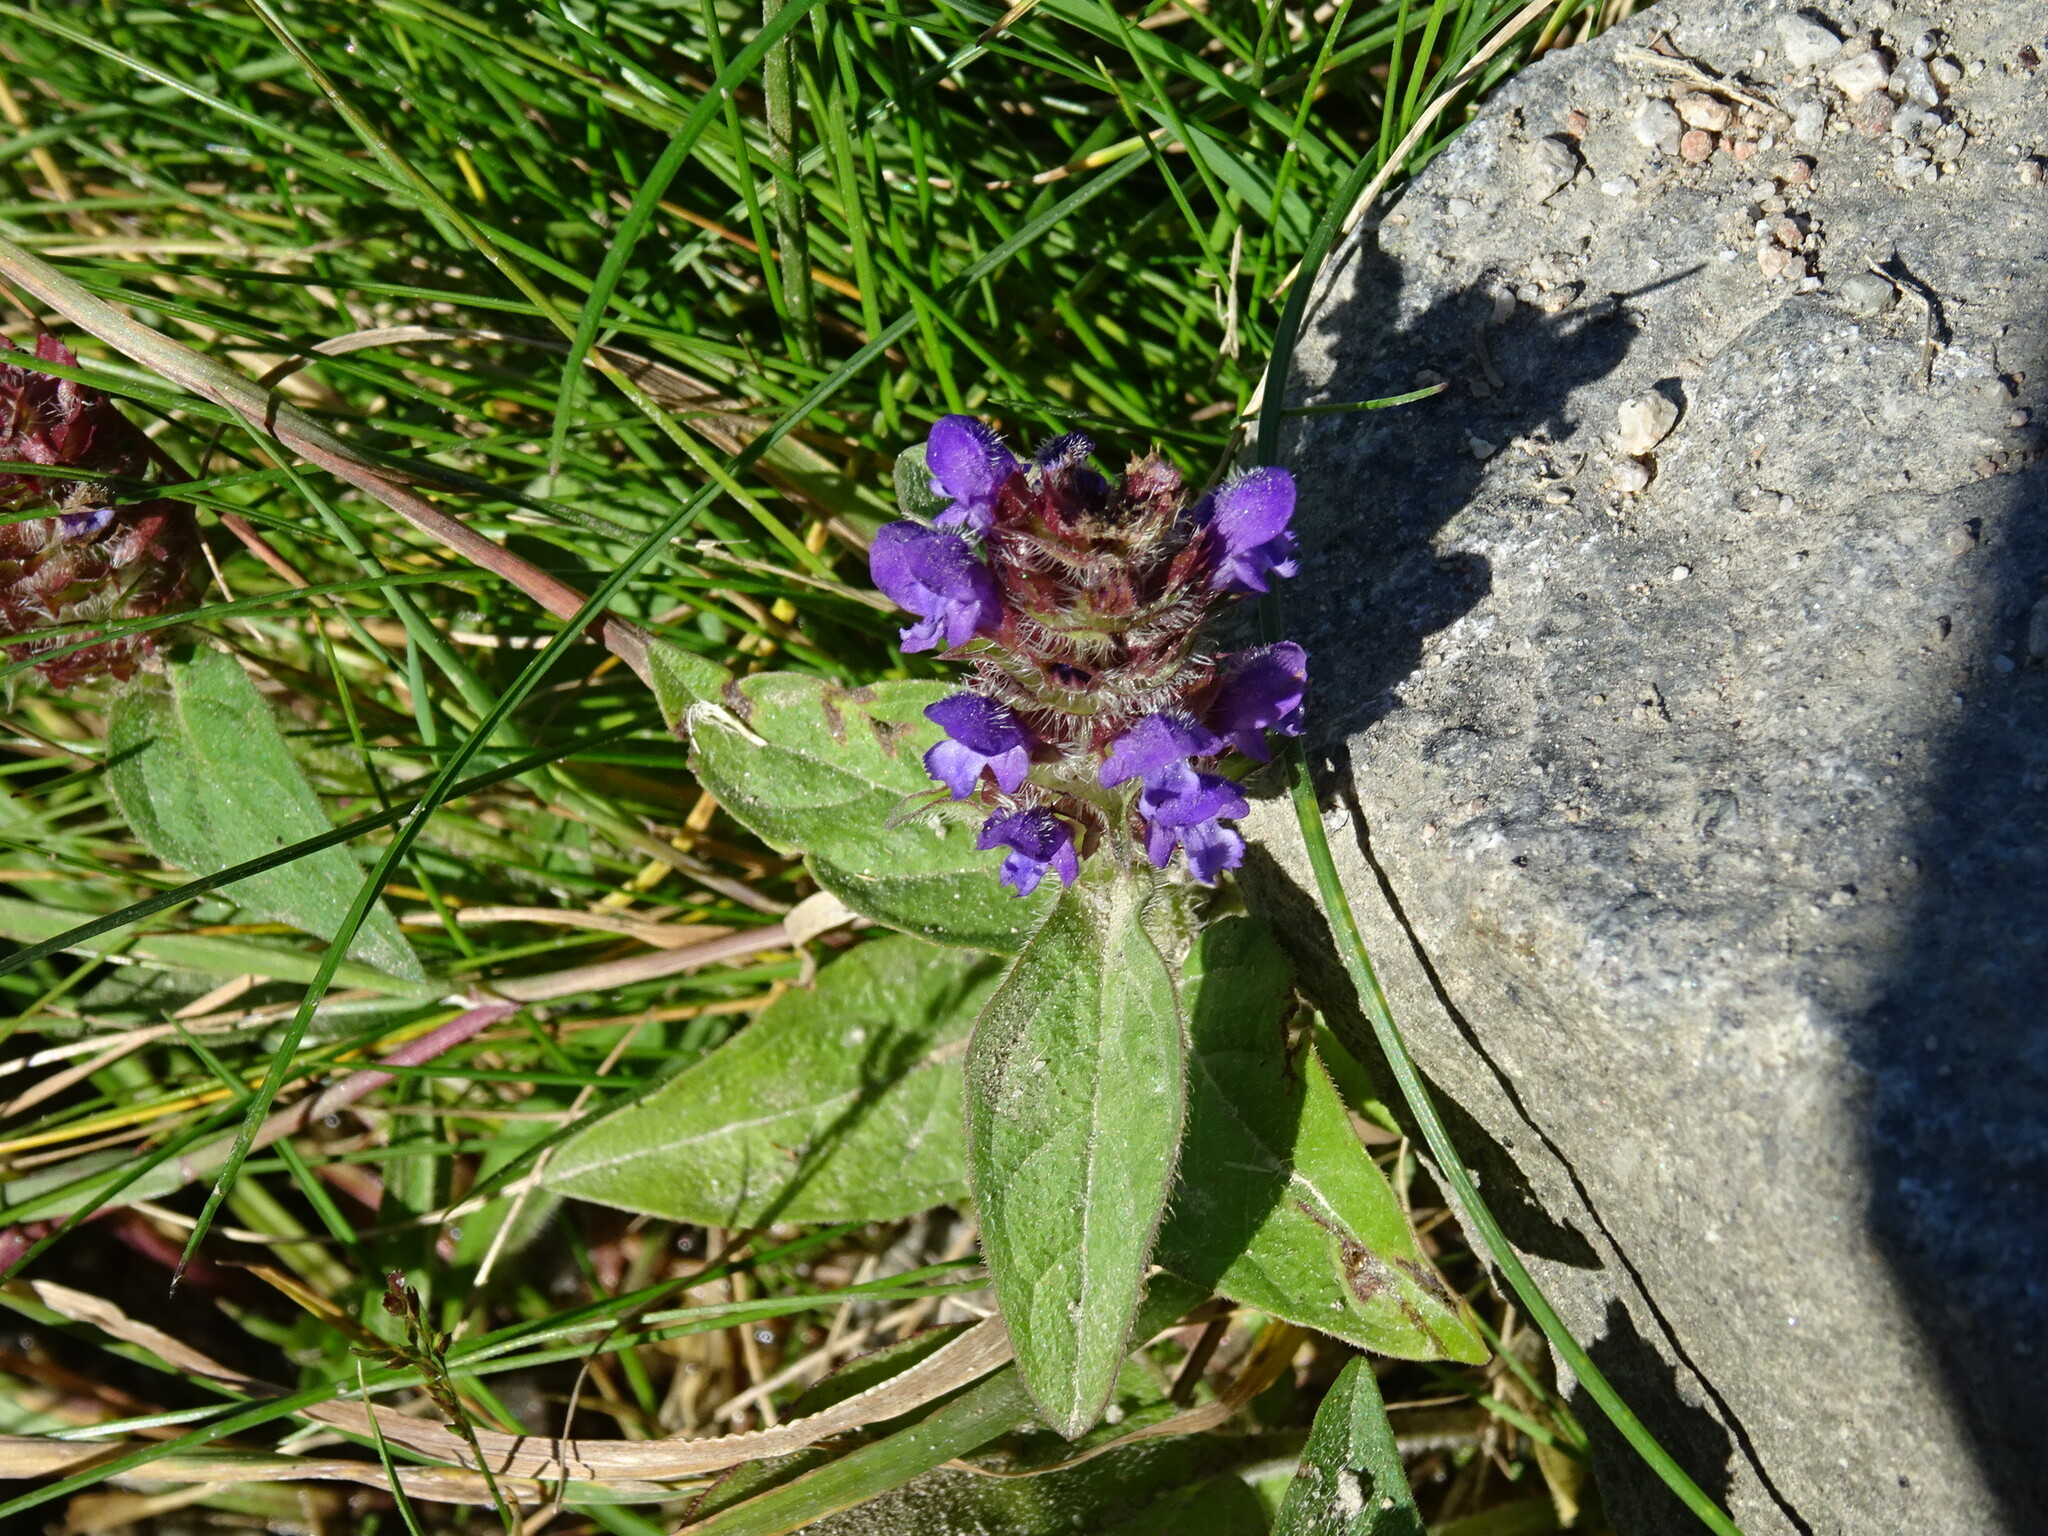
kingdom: Plantae
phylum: Tracheophyta
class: Magnoliopsida
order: Lamiales
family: Lamiaceae
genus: Prunella
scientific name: Prunella vulgaris
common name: Heal-all
